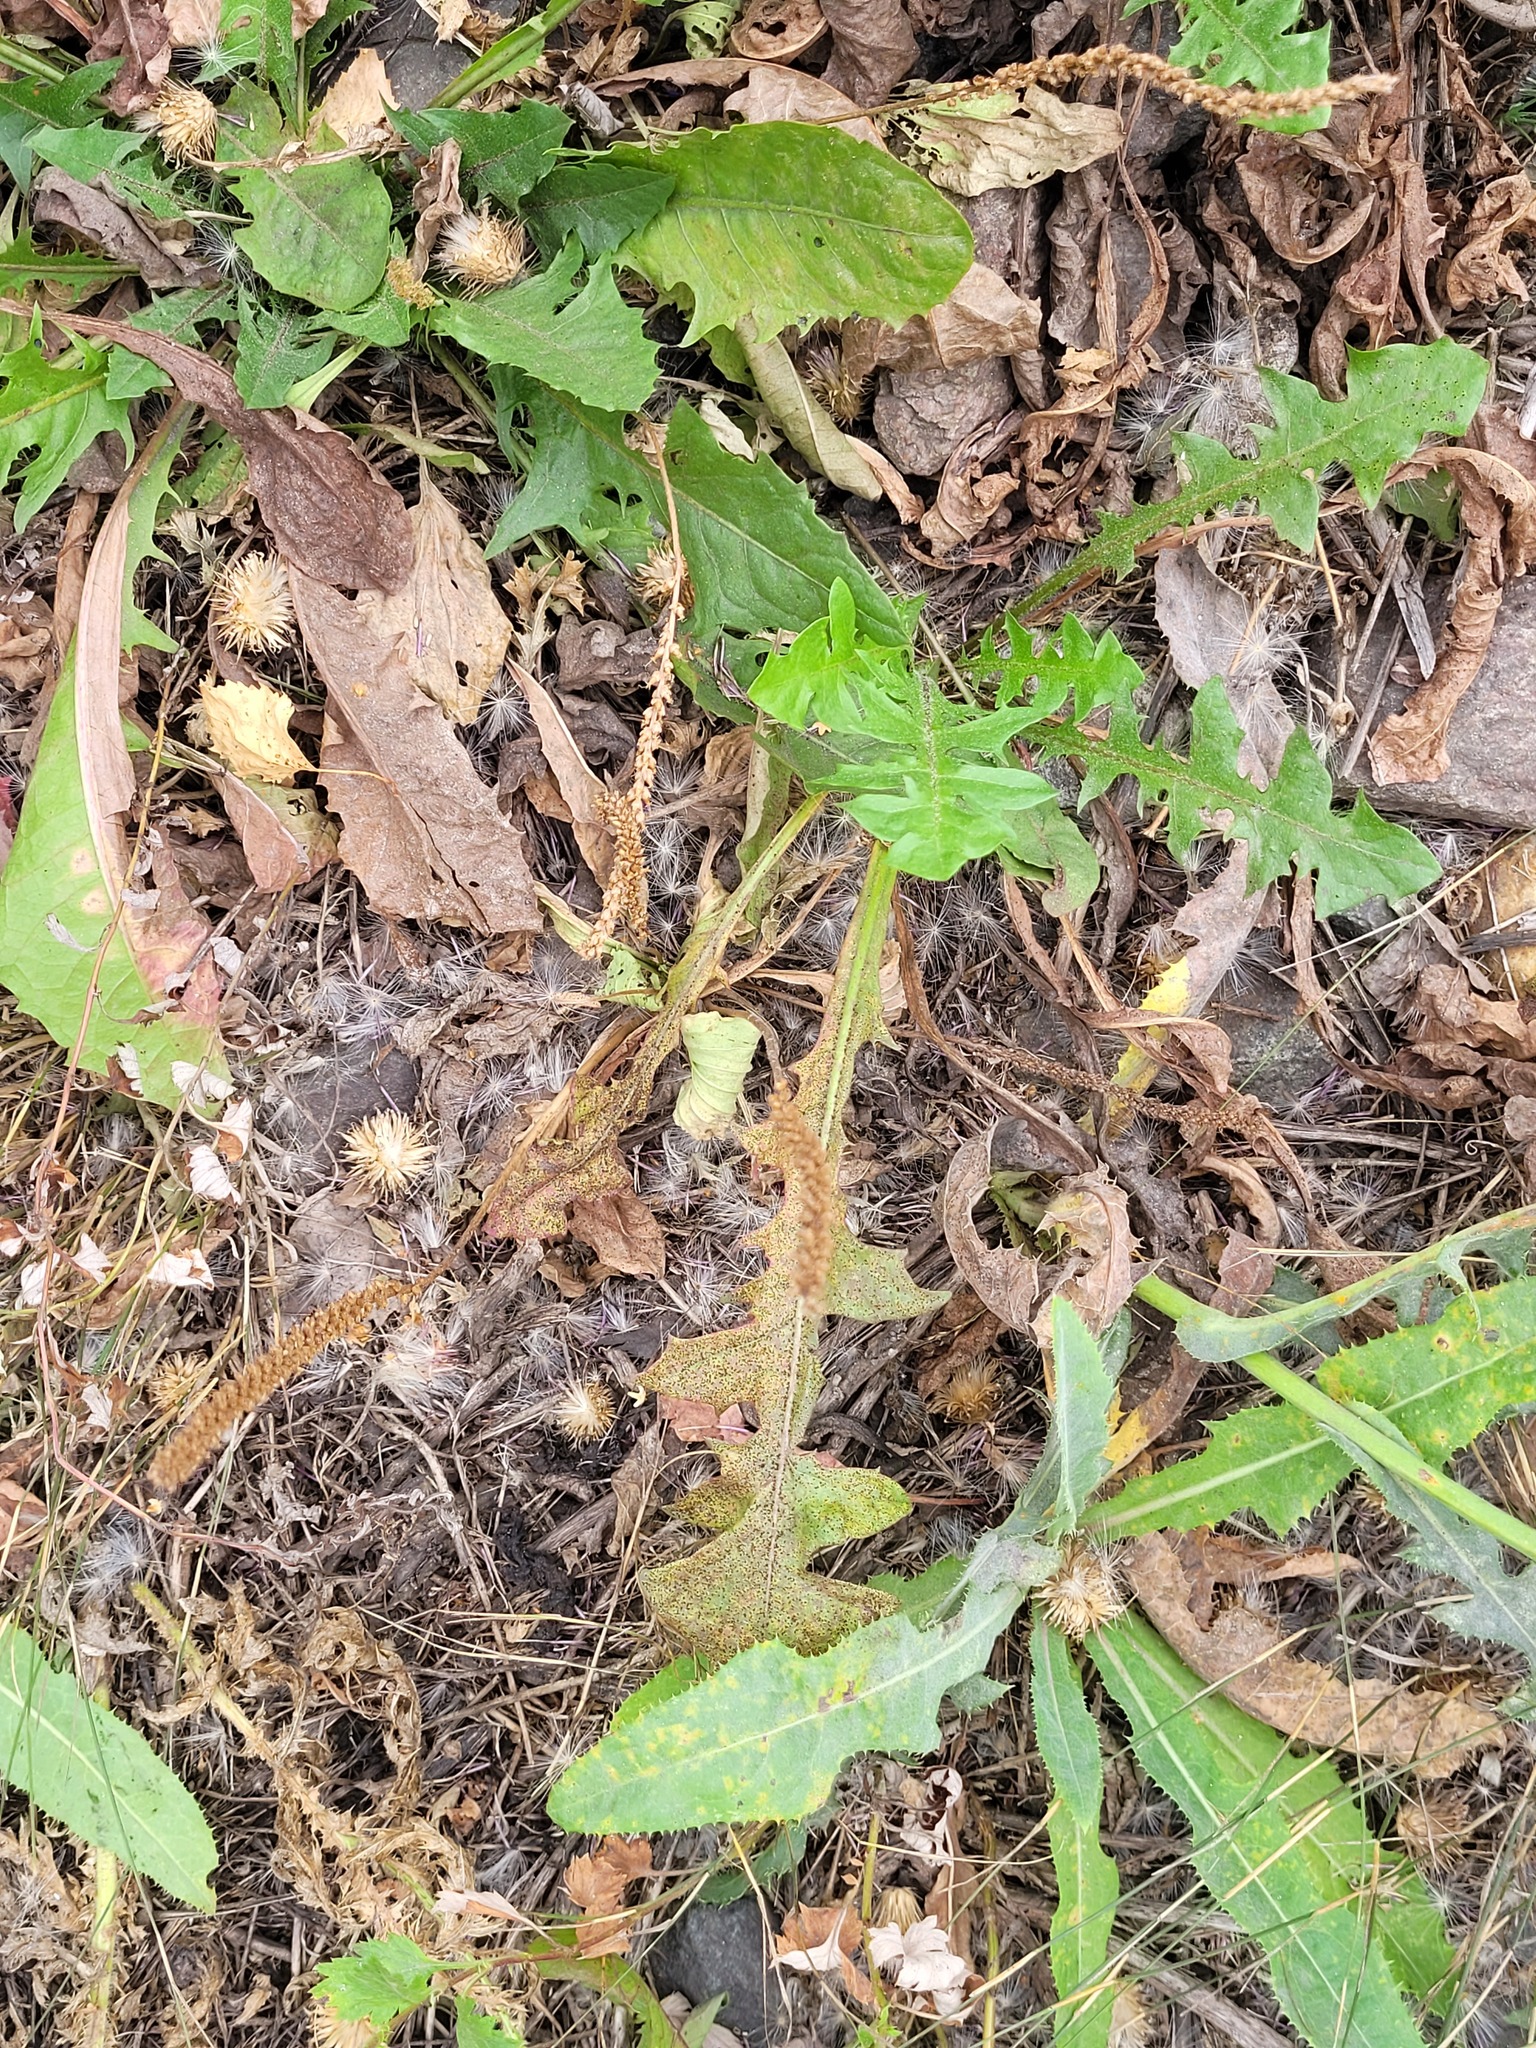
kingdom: Plantae
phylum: Tracheophyta
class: Magnoliopsida
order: Lamiales
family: Plantaginaceae
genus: Plantago
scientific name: Plantago major
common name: Common plantain
